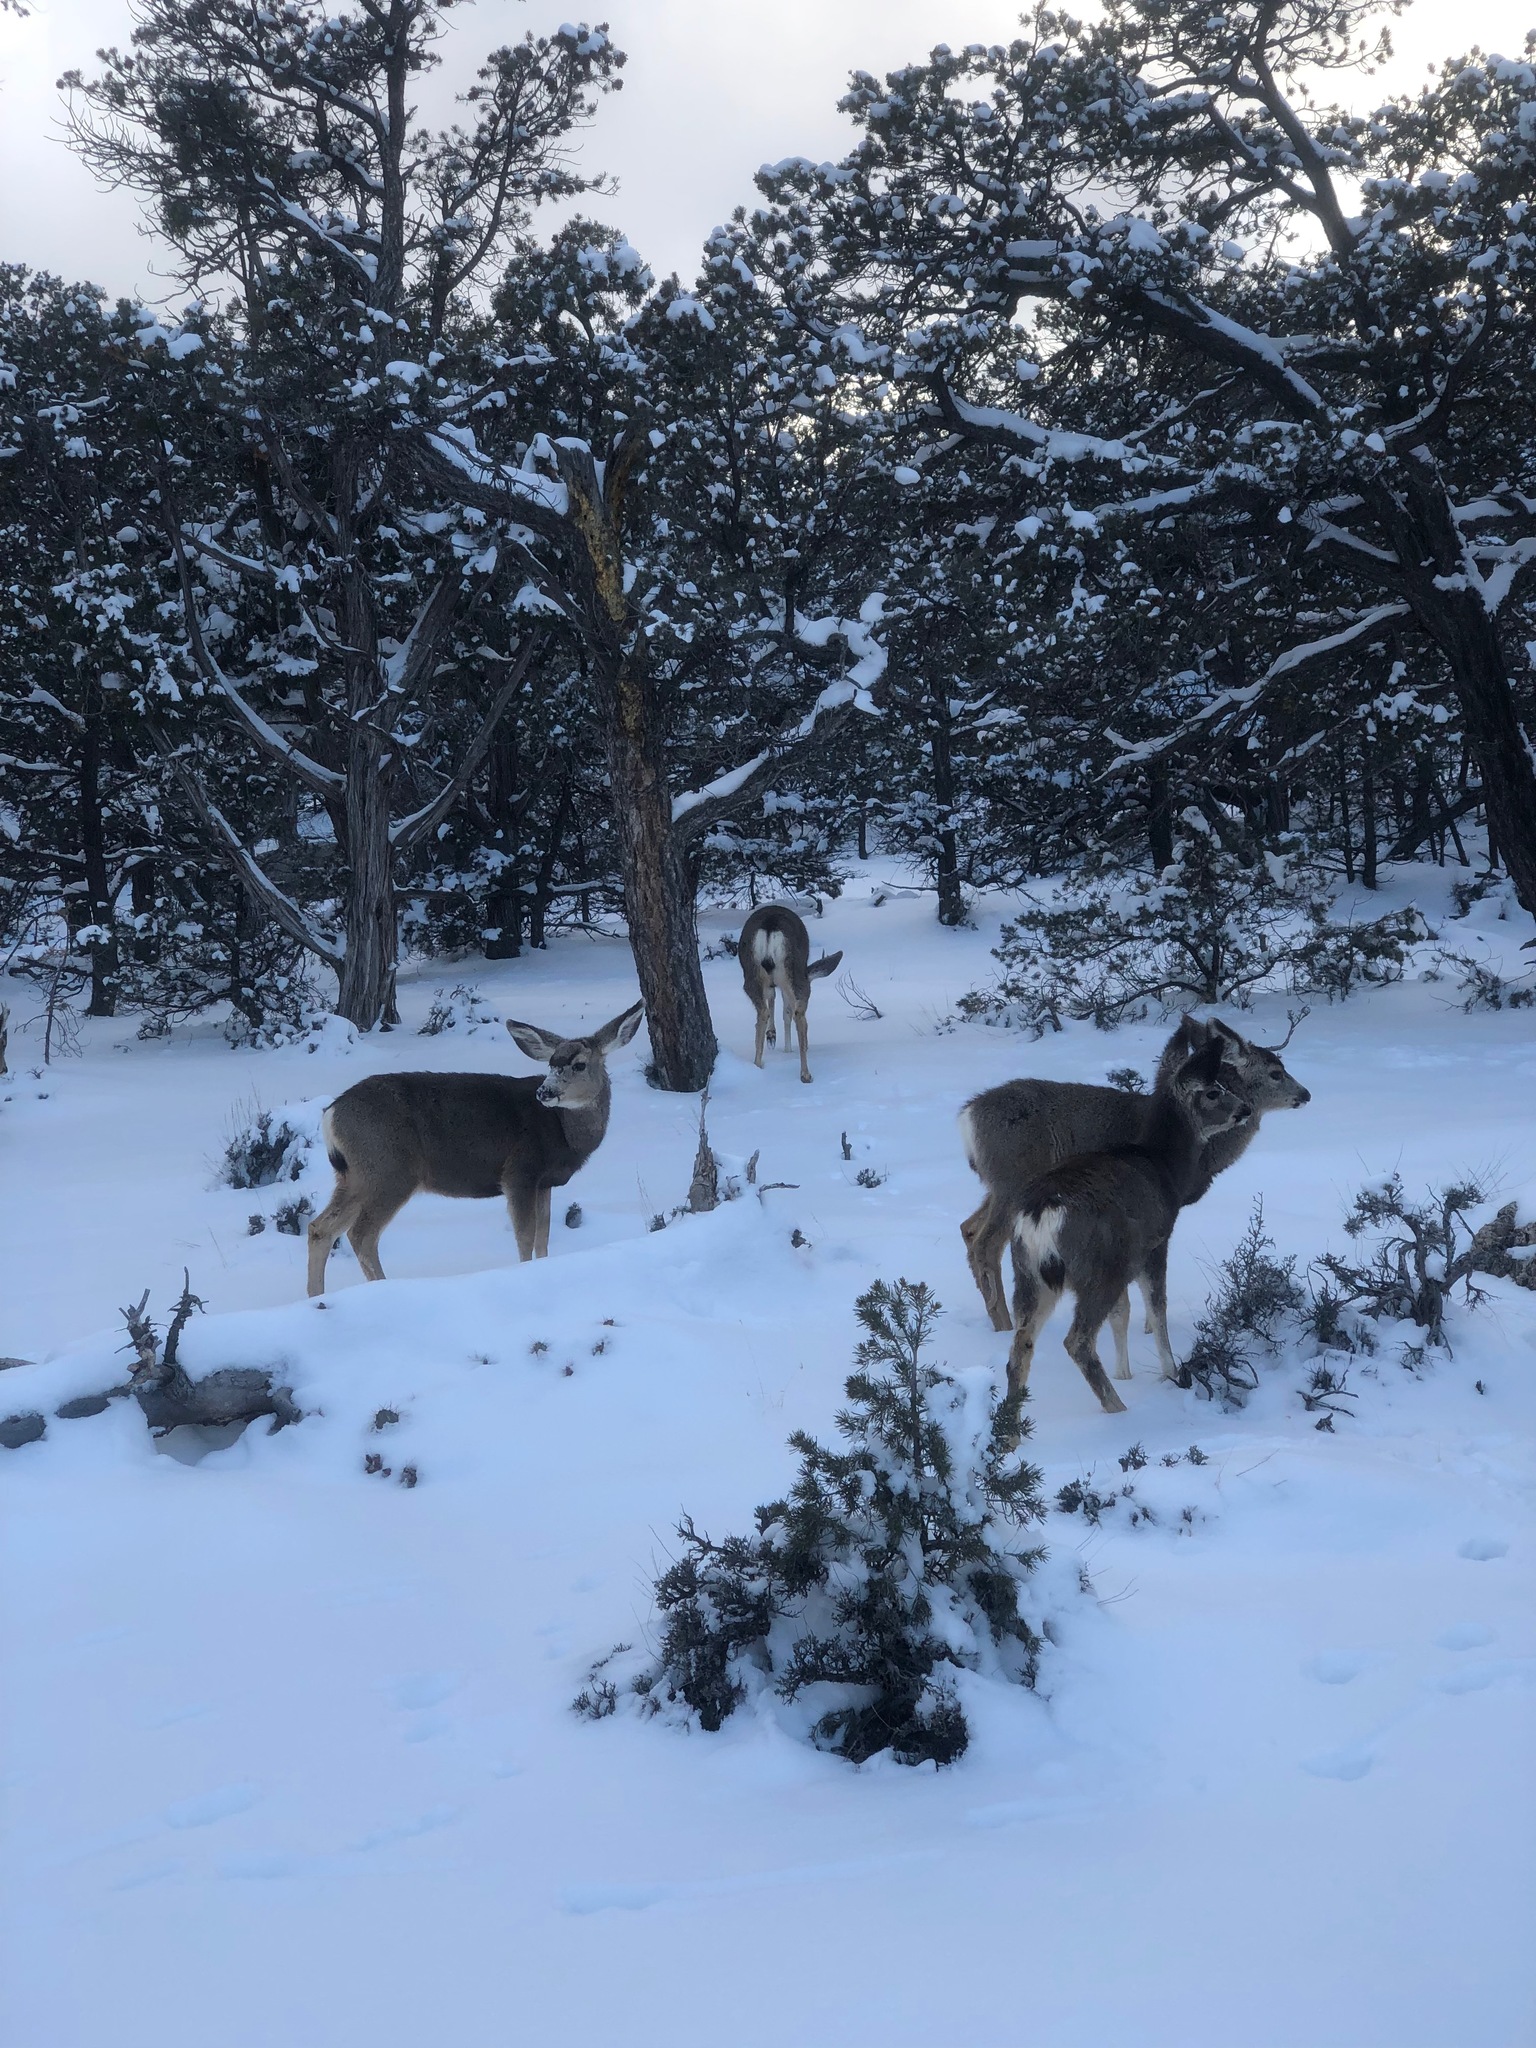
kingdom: Animalia
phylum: Chordata
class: Mammalia
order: Artiodactyla
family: Cervidae
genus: Odocoileus
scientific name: Odocoileus hemionus
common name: Mule deer
